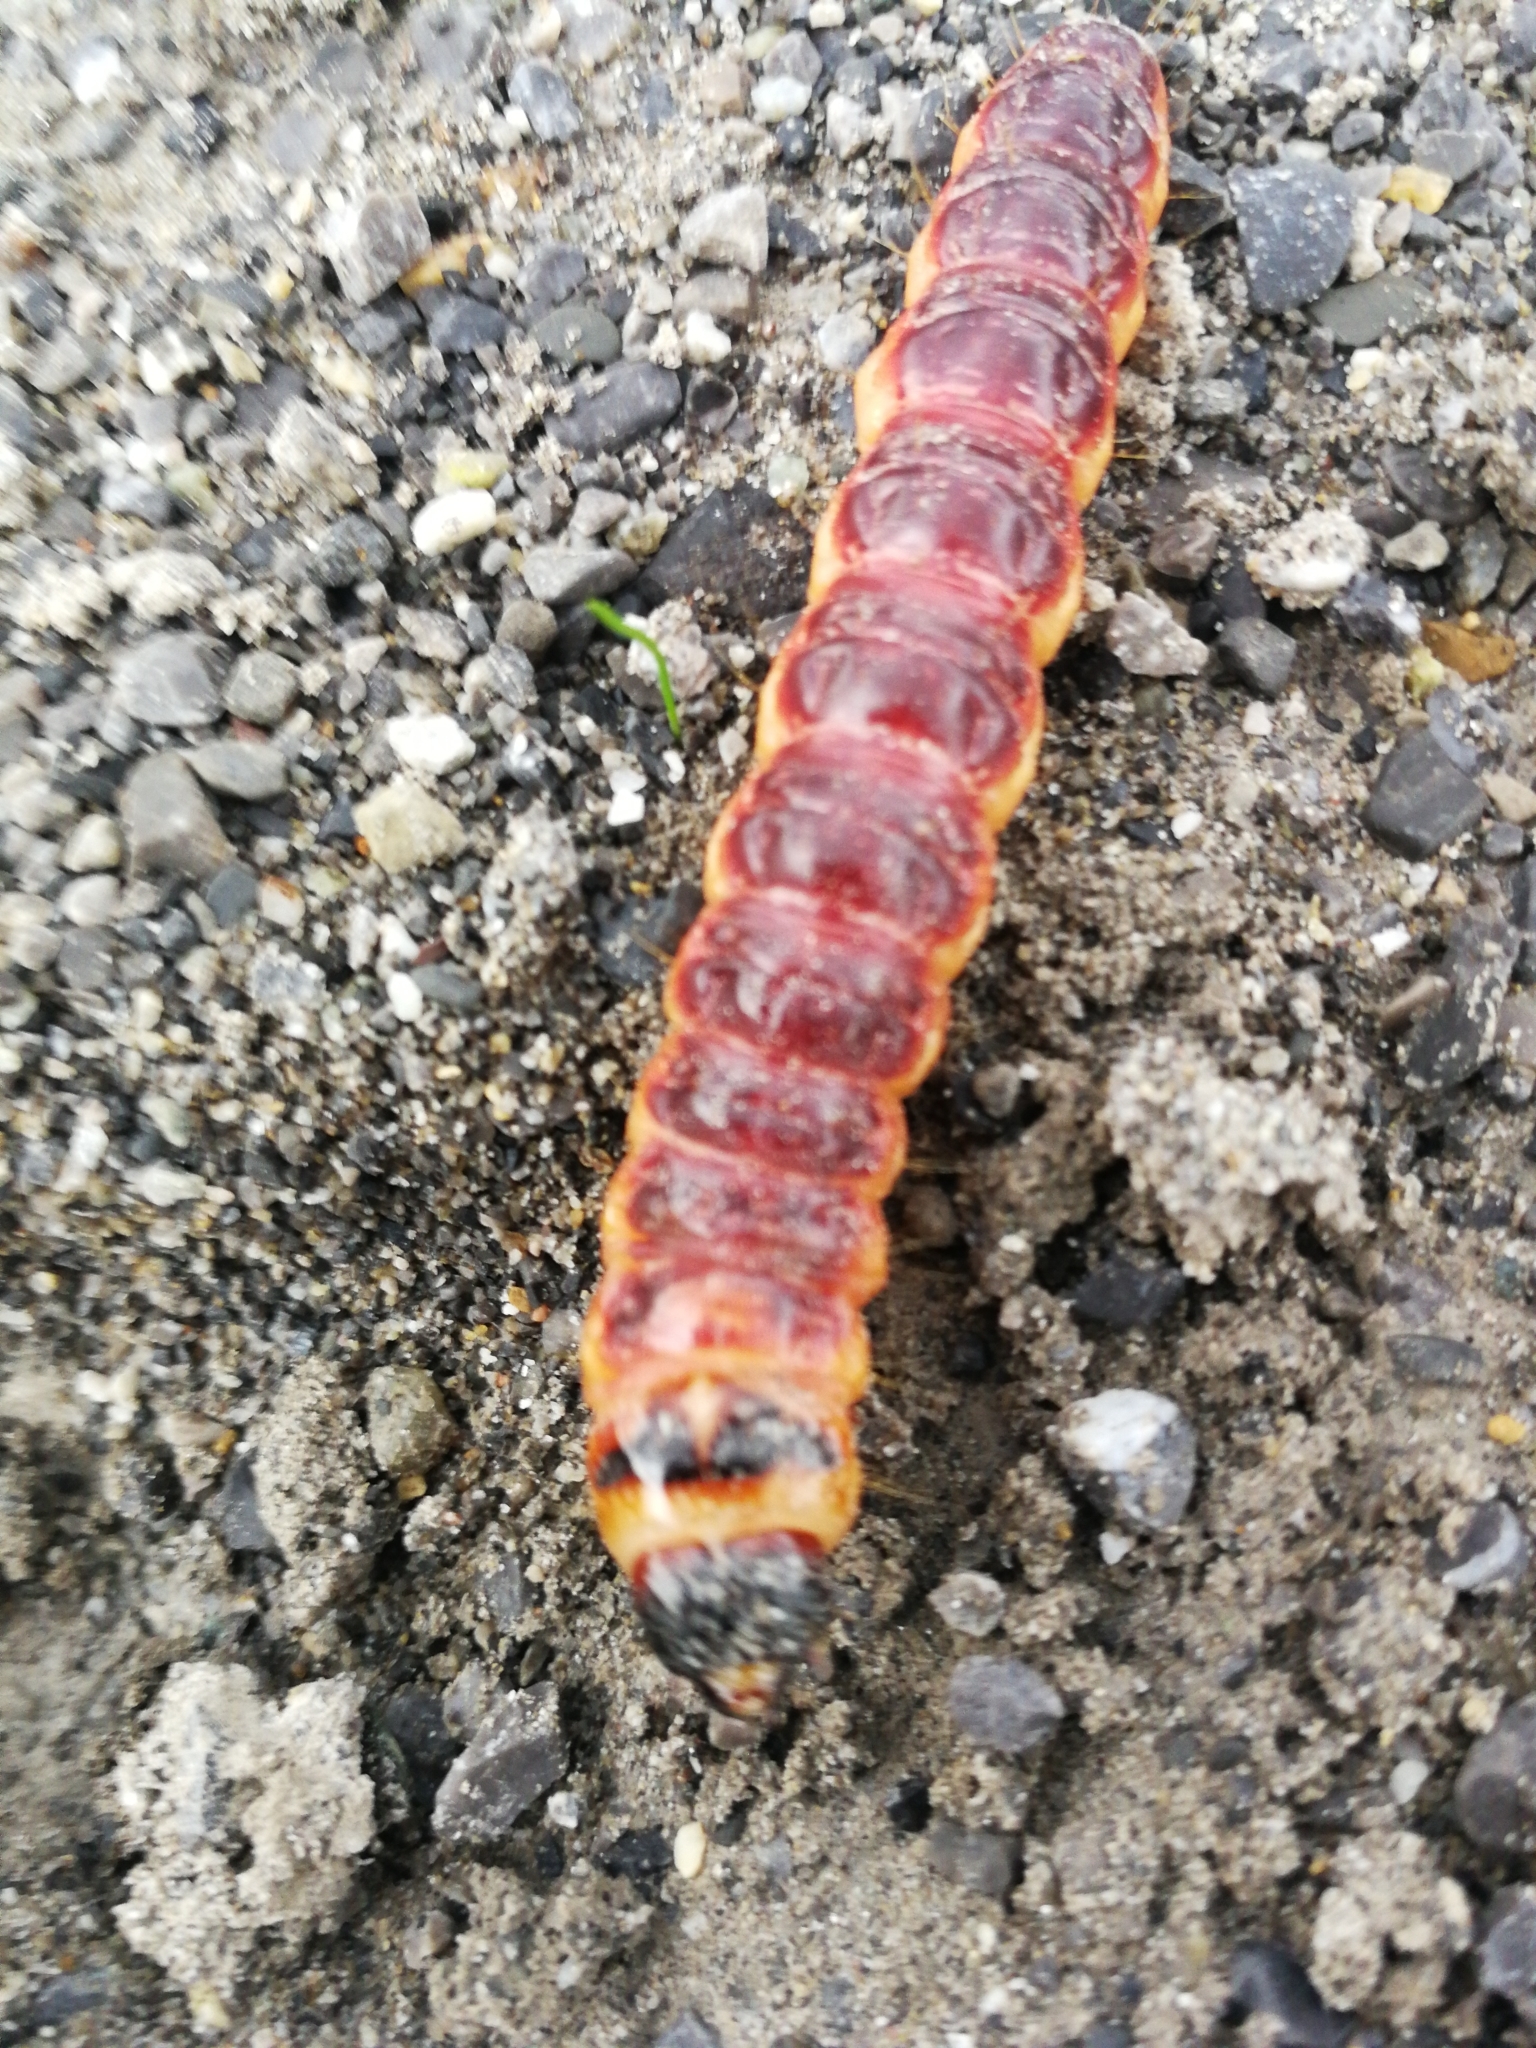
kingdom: Animalia
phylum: Arthropoda
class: Insecta
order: Lepidoptera
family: Cossidae
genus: Cossus
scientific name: Cossus cossus
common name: Goat moth
